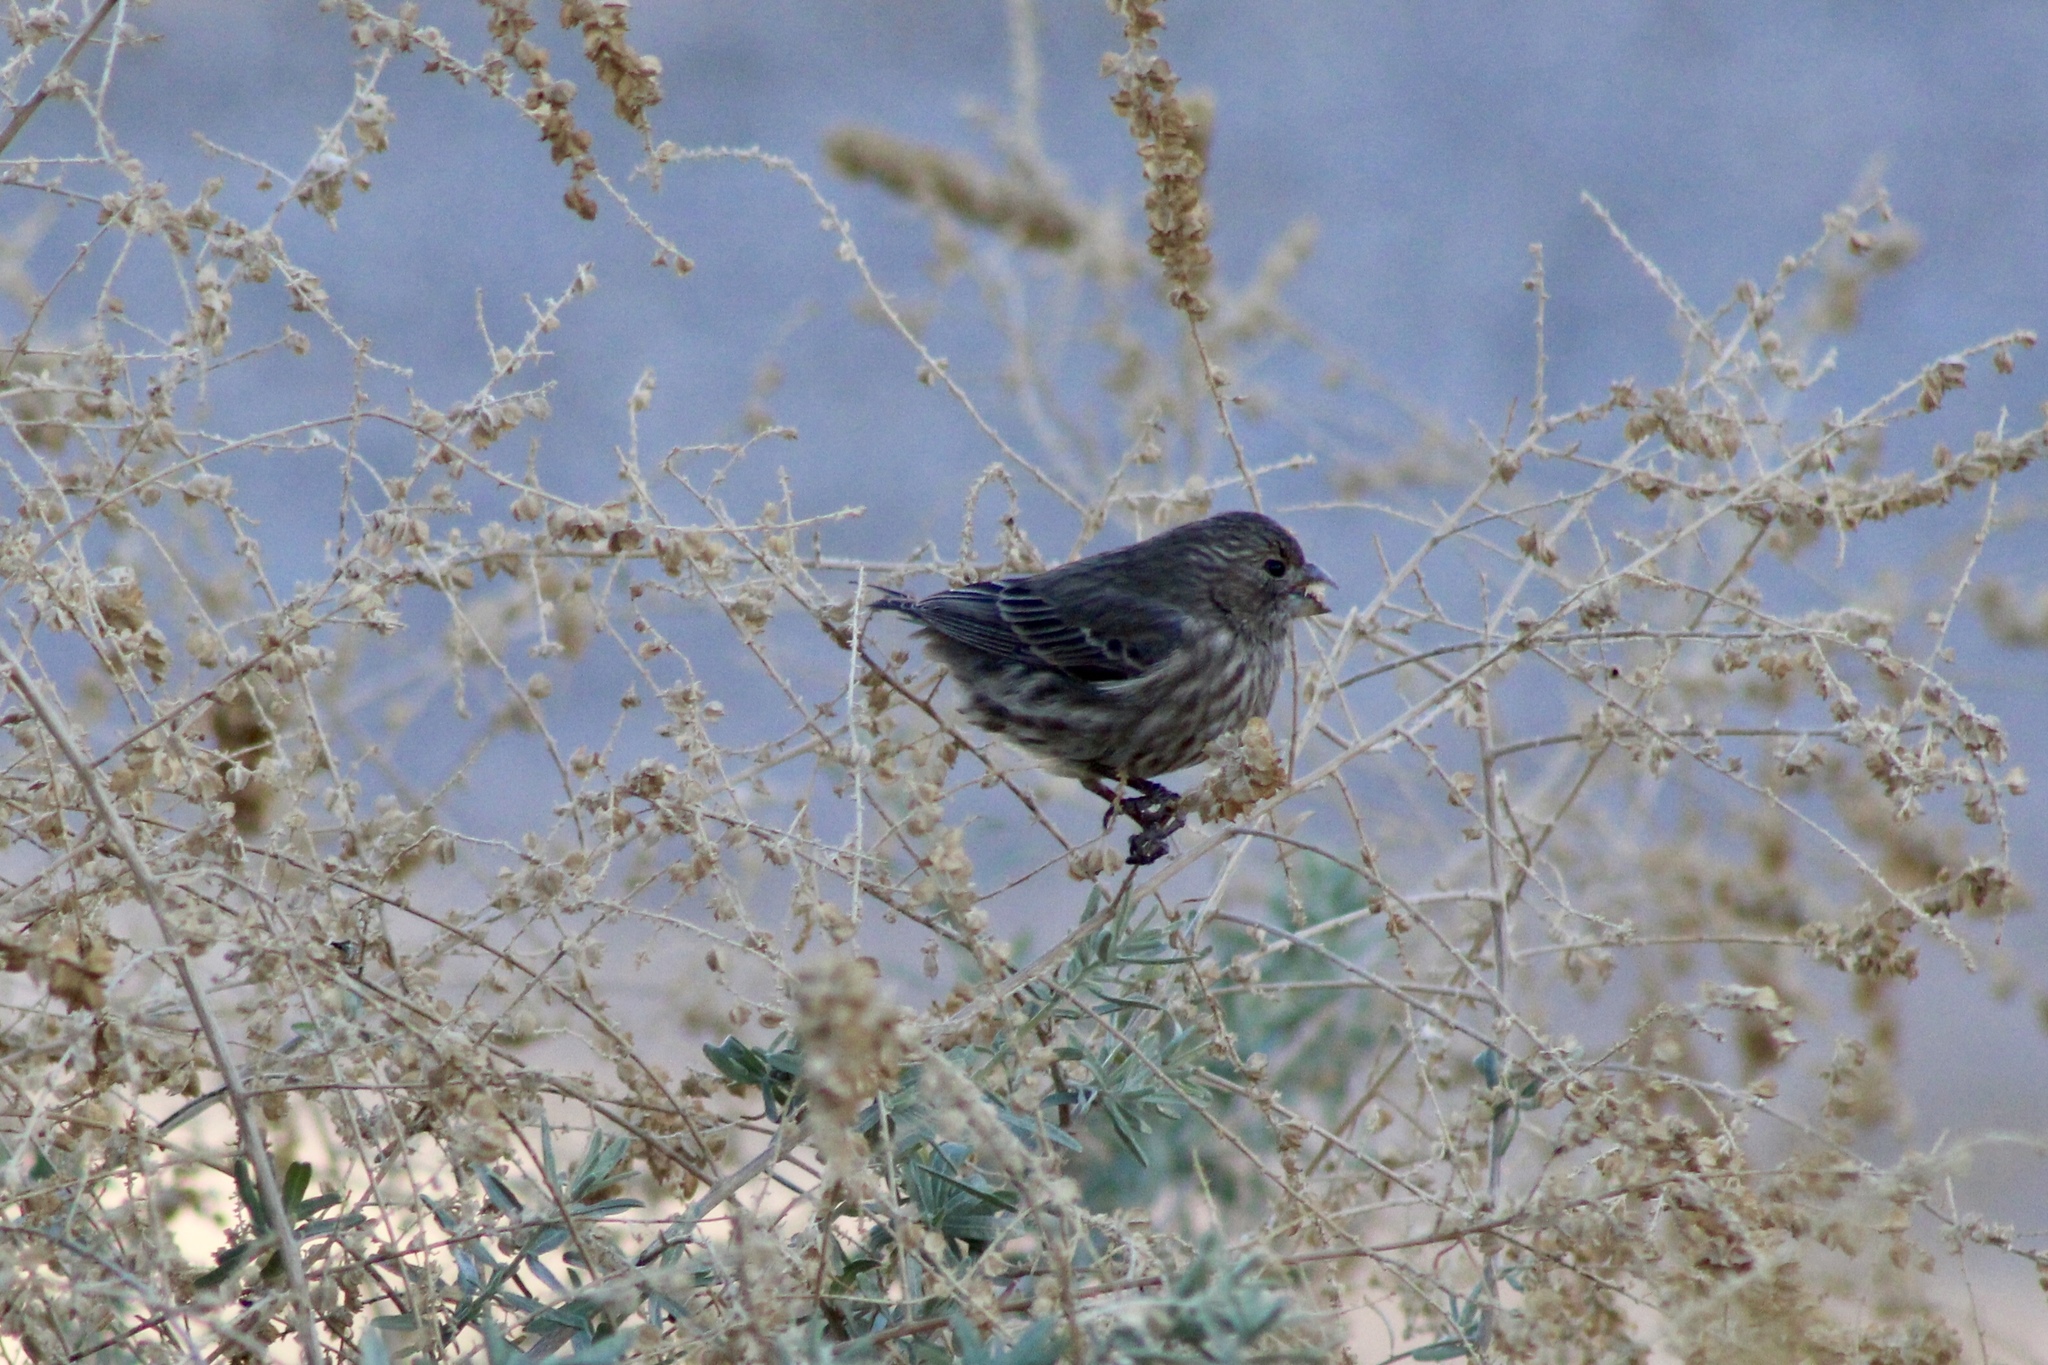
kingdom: Animalia
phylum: Chordata
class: Aves
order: Passeriformes
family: Fringillidae
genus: Haemorhous
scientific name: Haemorhous mexicanus
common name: House finch
